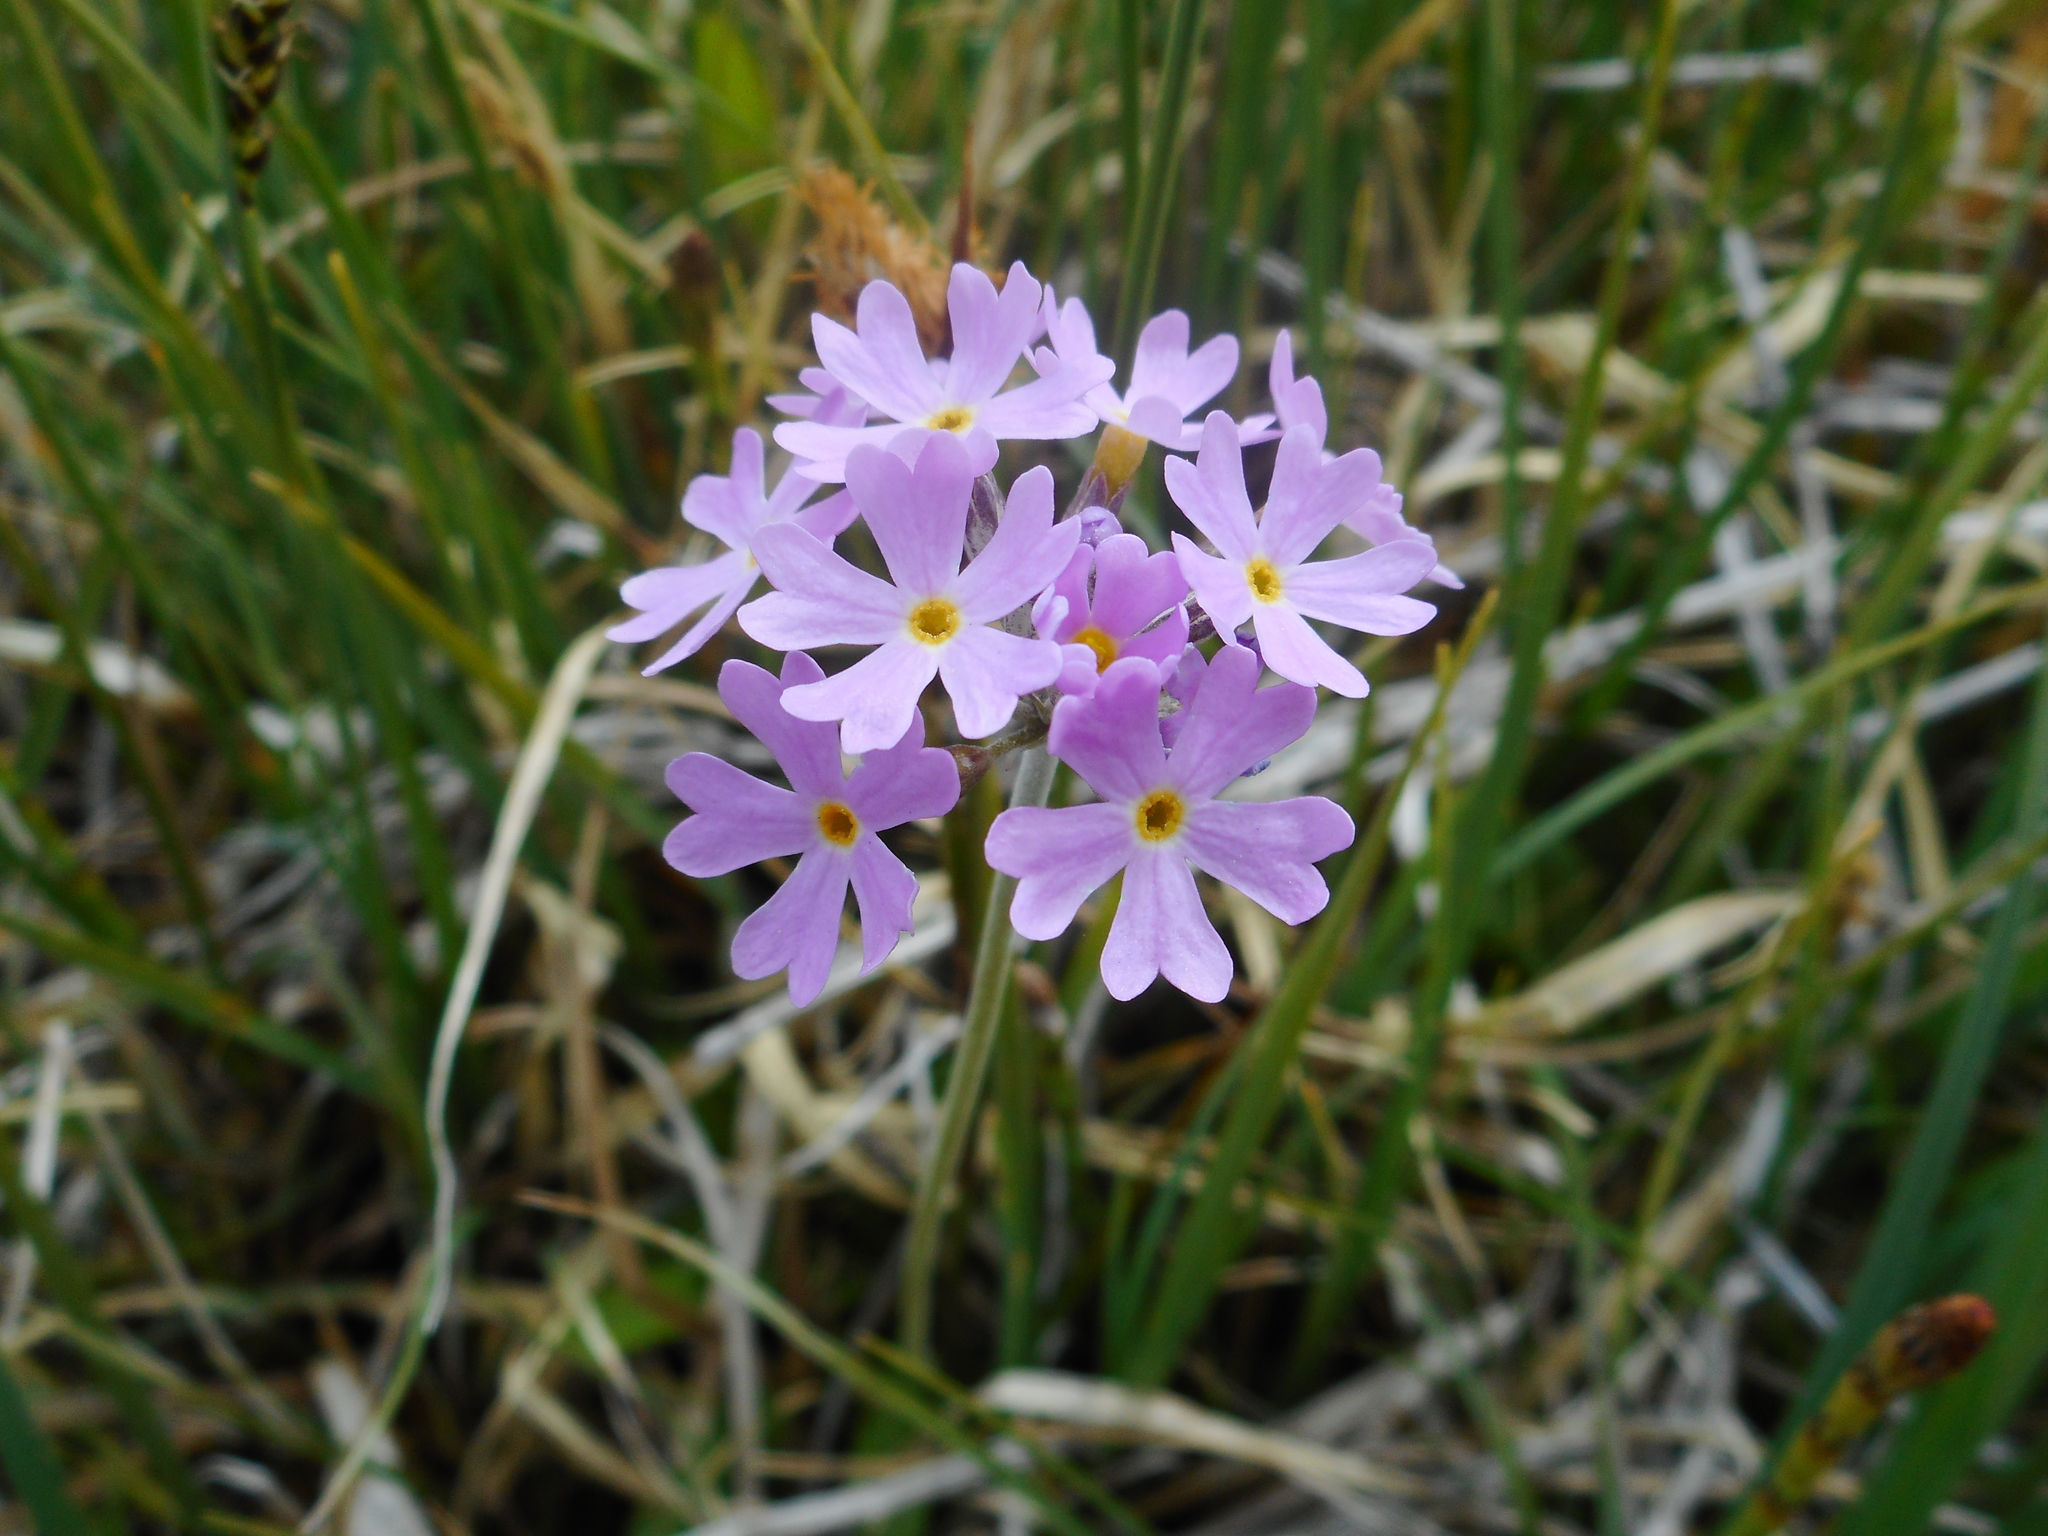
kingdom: Plantae
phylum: Tracheophyta
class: Magnoliopsida
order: Ericales
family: Primulaceae
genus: Primula
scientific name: Primula farinosa
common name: Bird's-eye primrose
